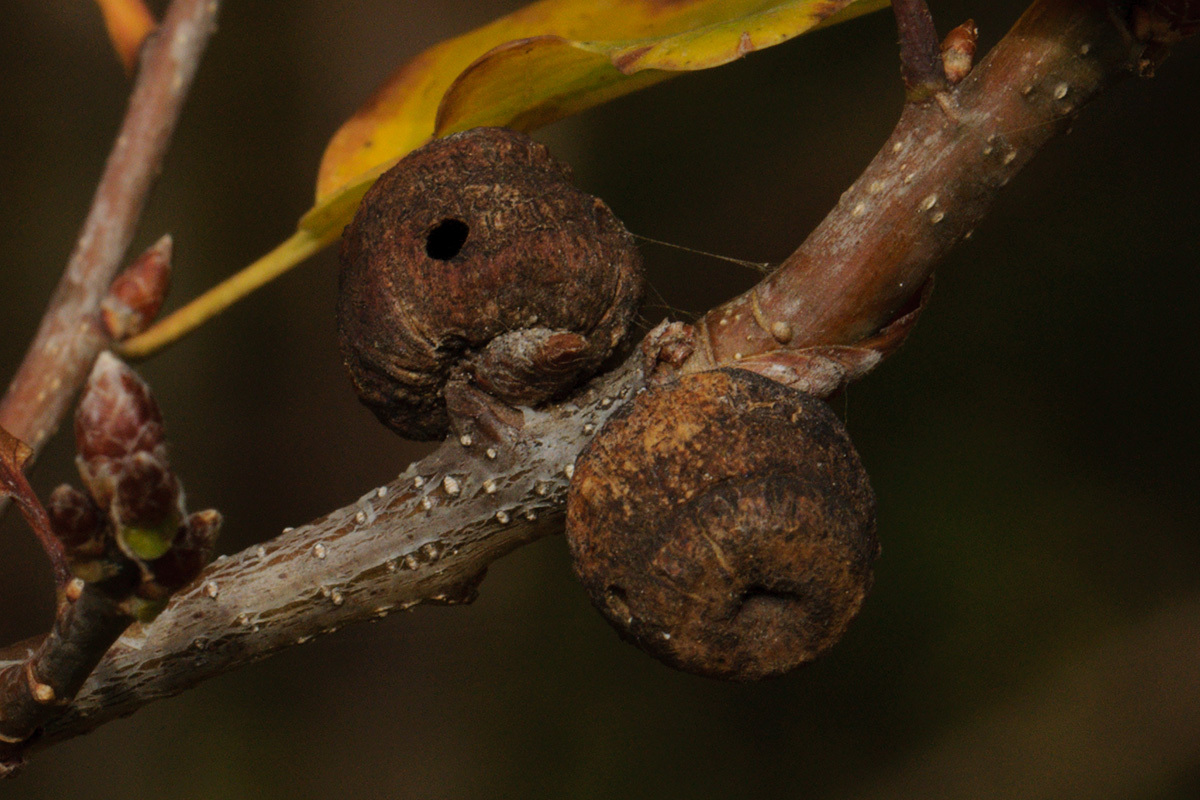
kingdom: Animalia
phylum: Arthropoda
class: Insecta
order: Hymenoptera
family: Cynipidae
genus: Andricus
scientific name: Andricus glutinosus
